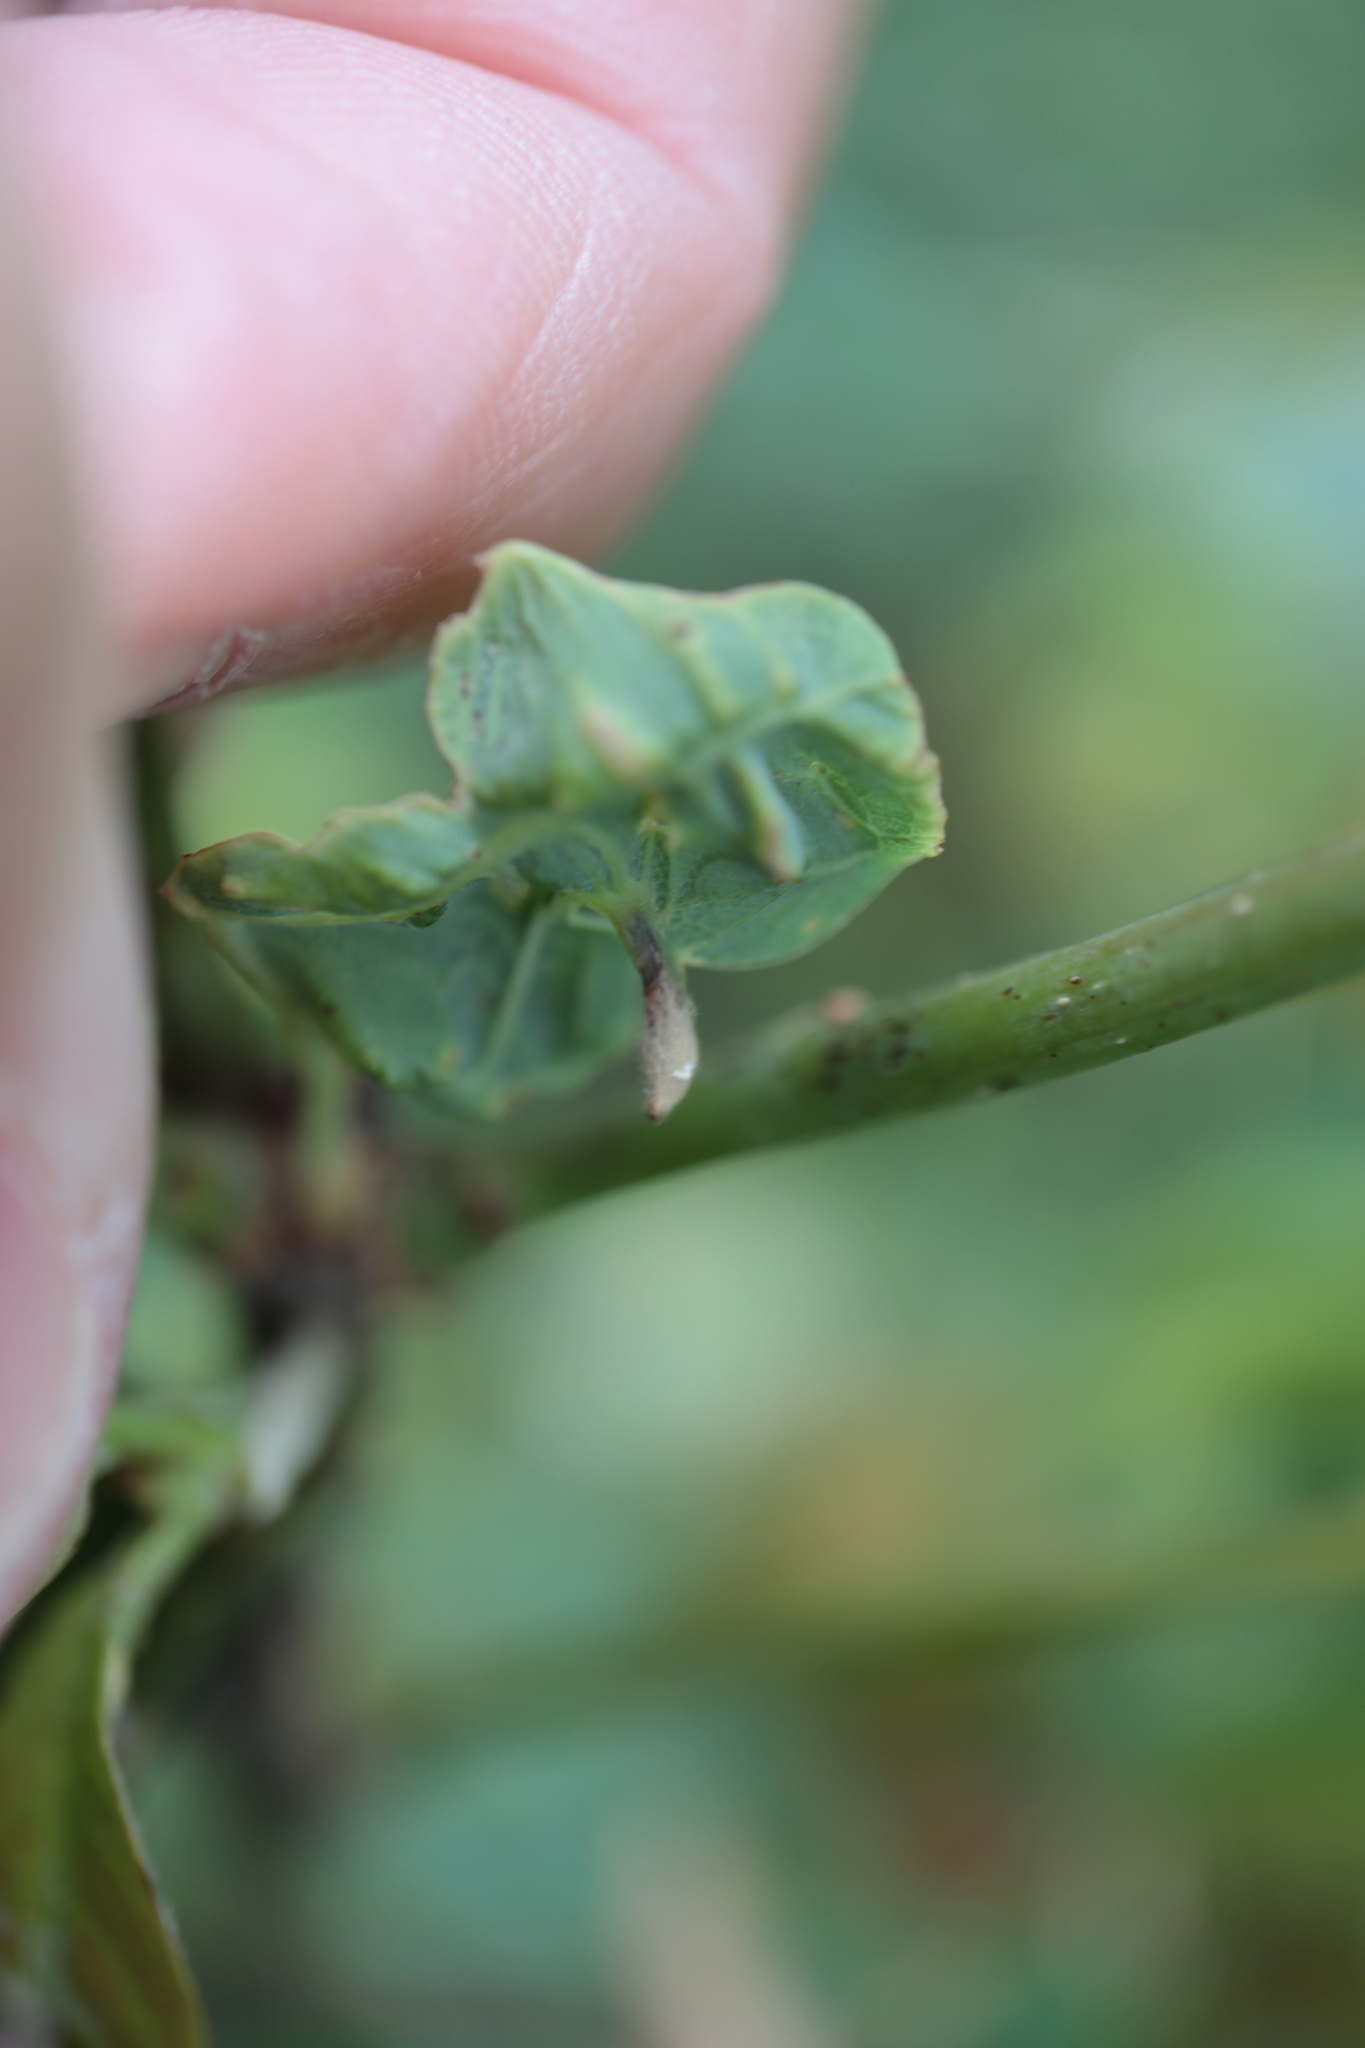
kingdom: Animalia
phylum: Arthropoda
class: Insecta
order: Hymenoptera
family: Cynipidae
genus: Andricus
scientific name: Andricus
